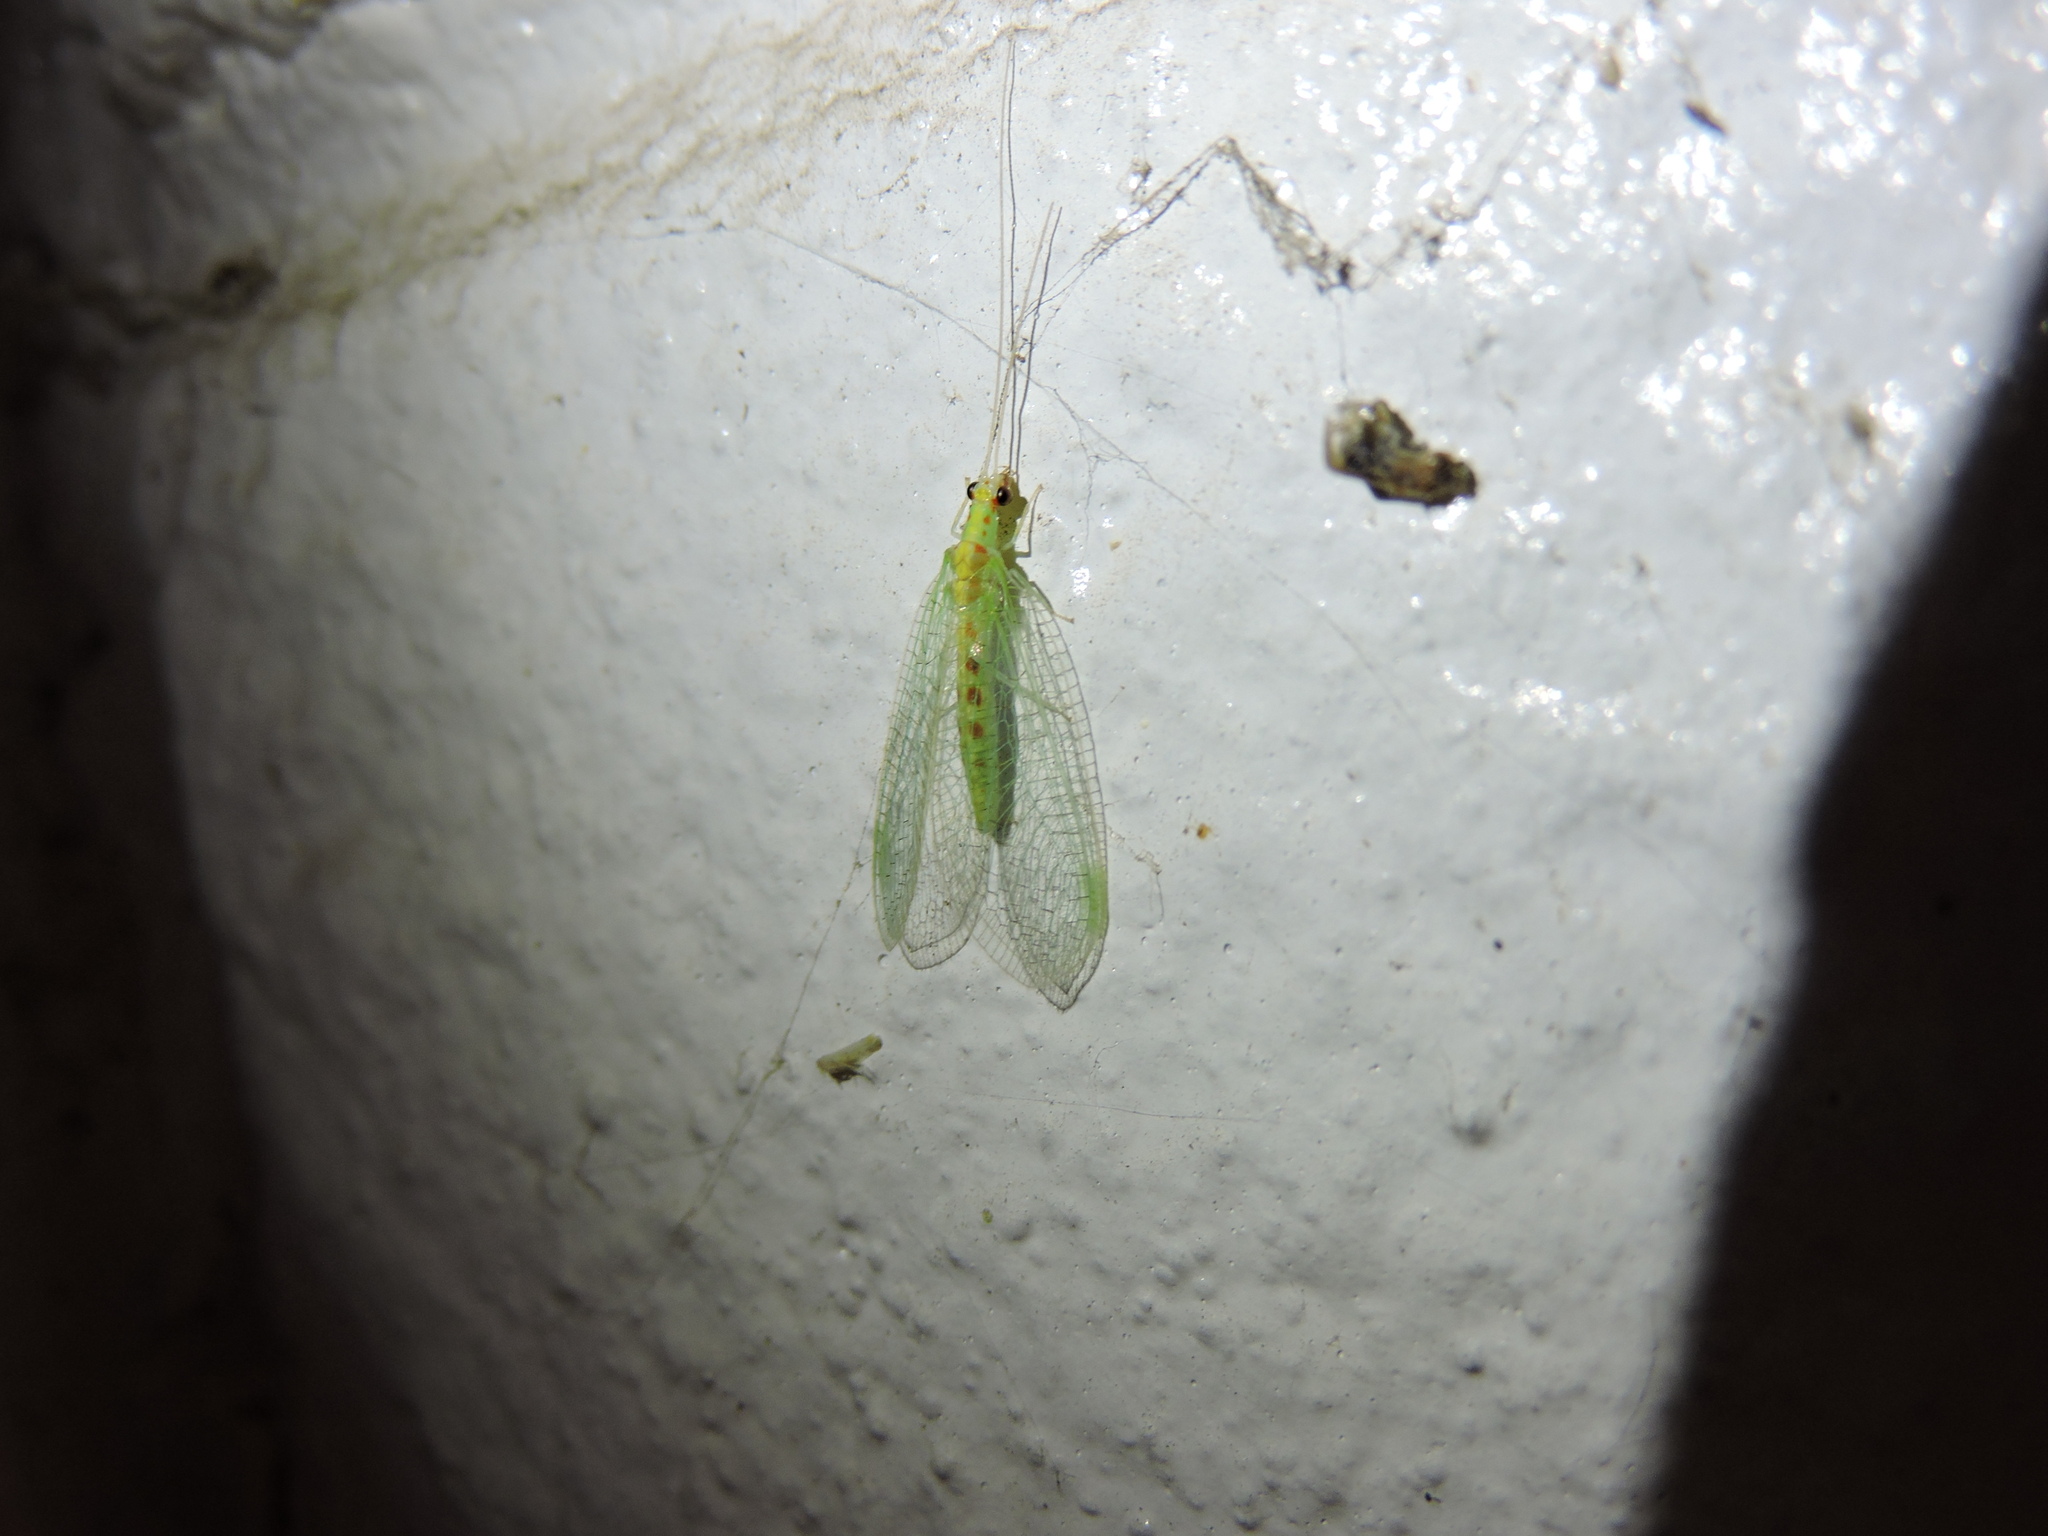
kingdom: Animalia
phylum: Arthropoda
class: Insecta
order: Neuroptera
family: Chrysopidae
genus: Chrysopa
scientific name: Chrysopa quadripunctata
